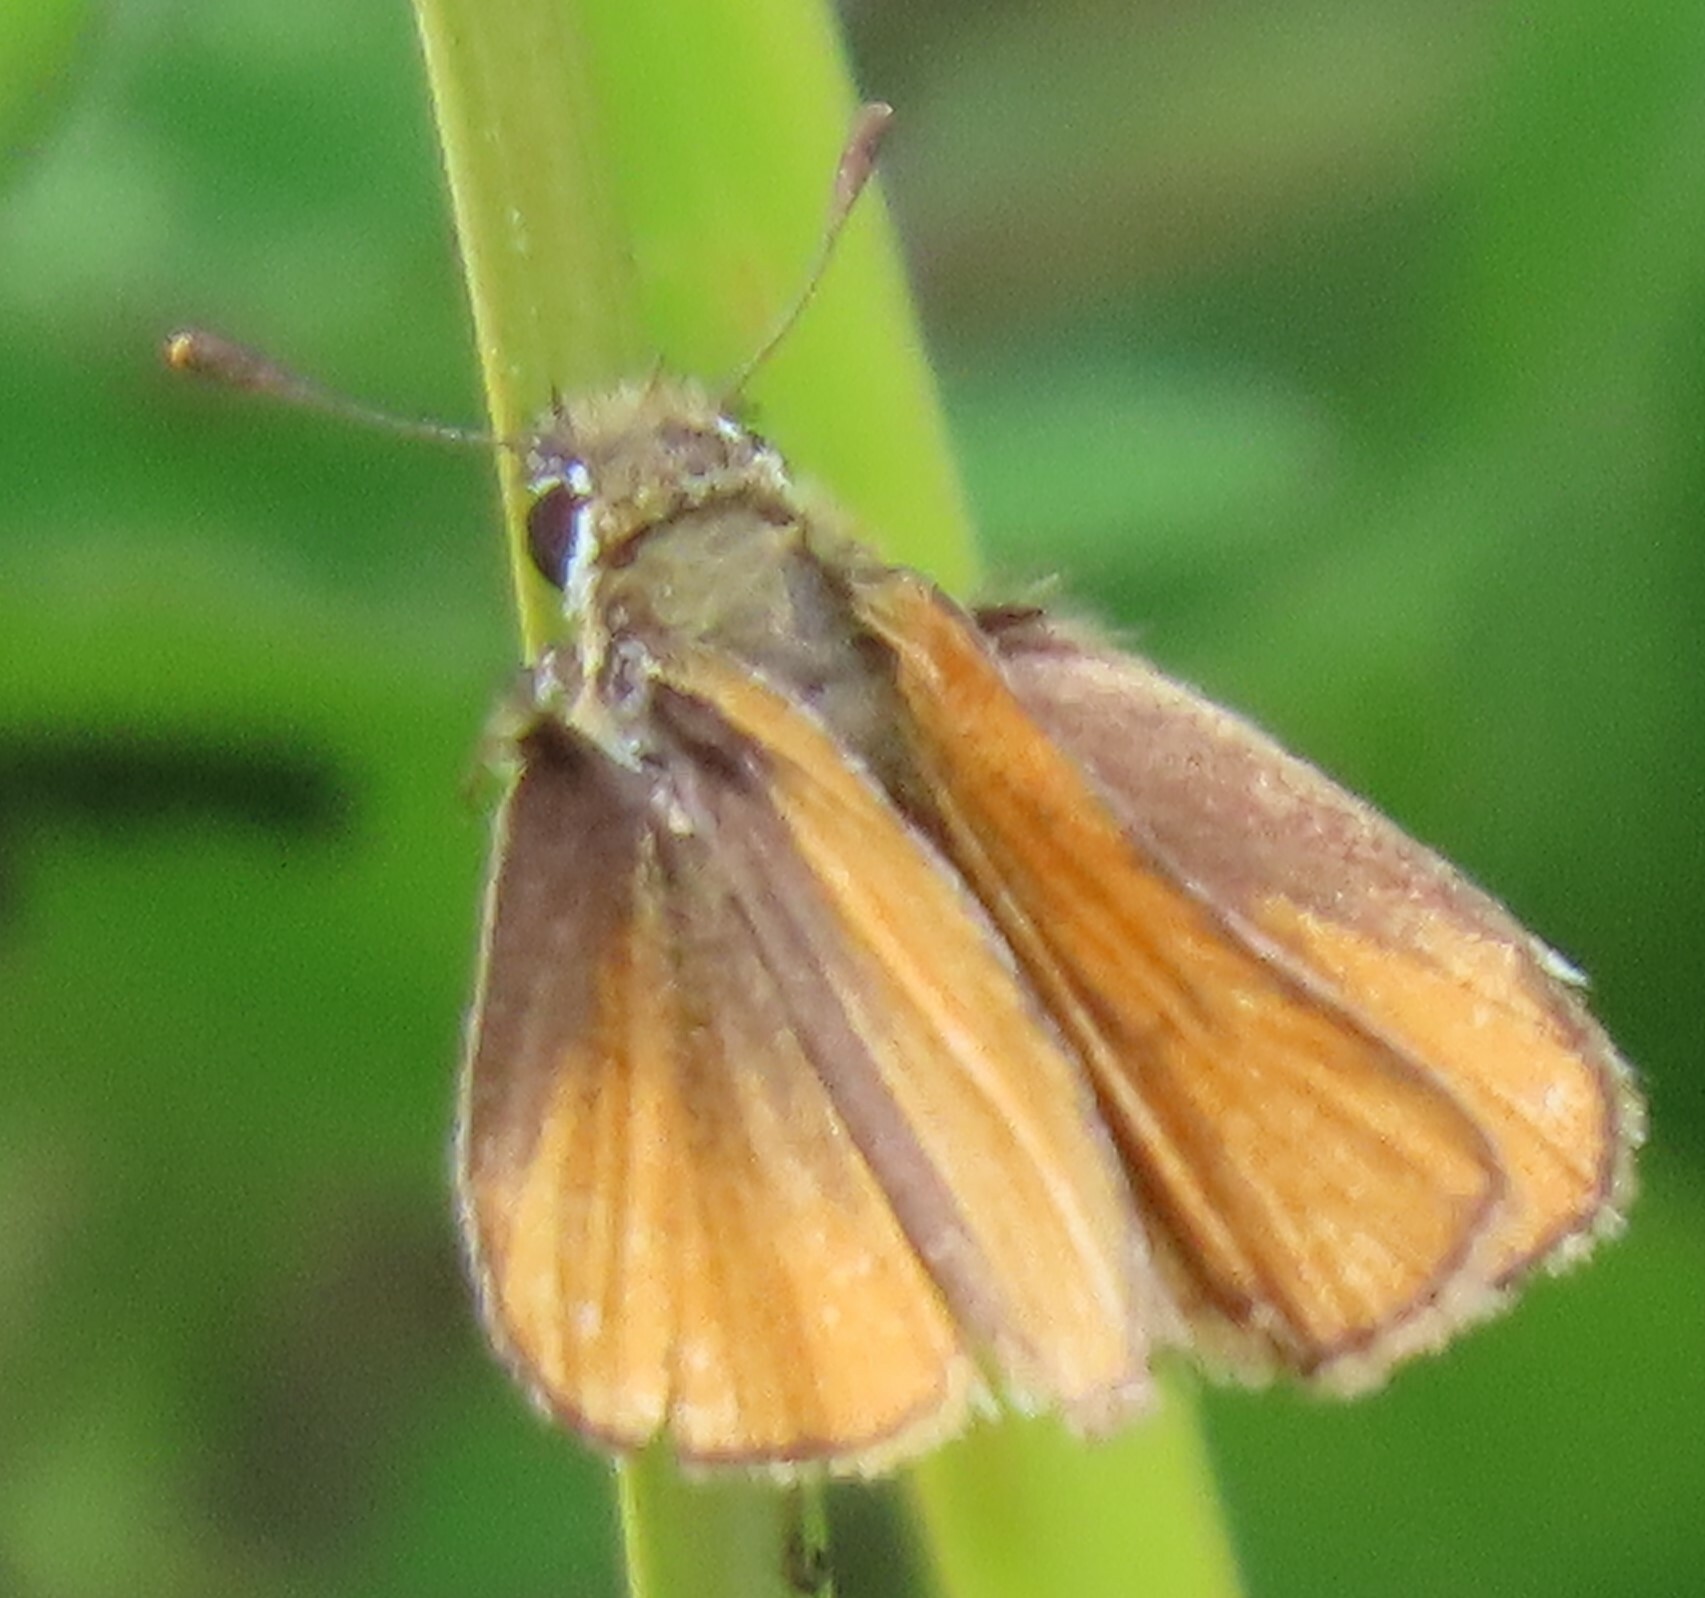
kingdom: Animalia
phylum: Arthropoda
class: Insecta
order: Lepidoptera
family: Hesperiidae
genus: Copaeodes
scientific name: Copaeodes minima
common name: Southern skipperling
